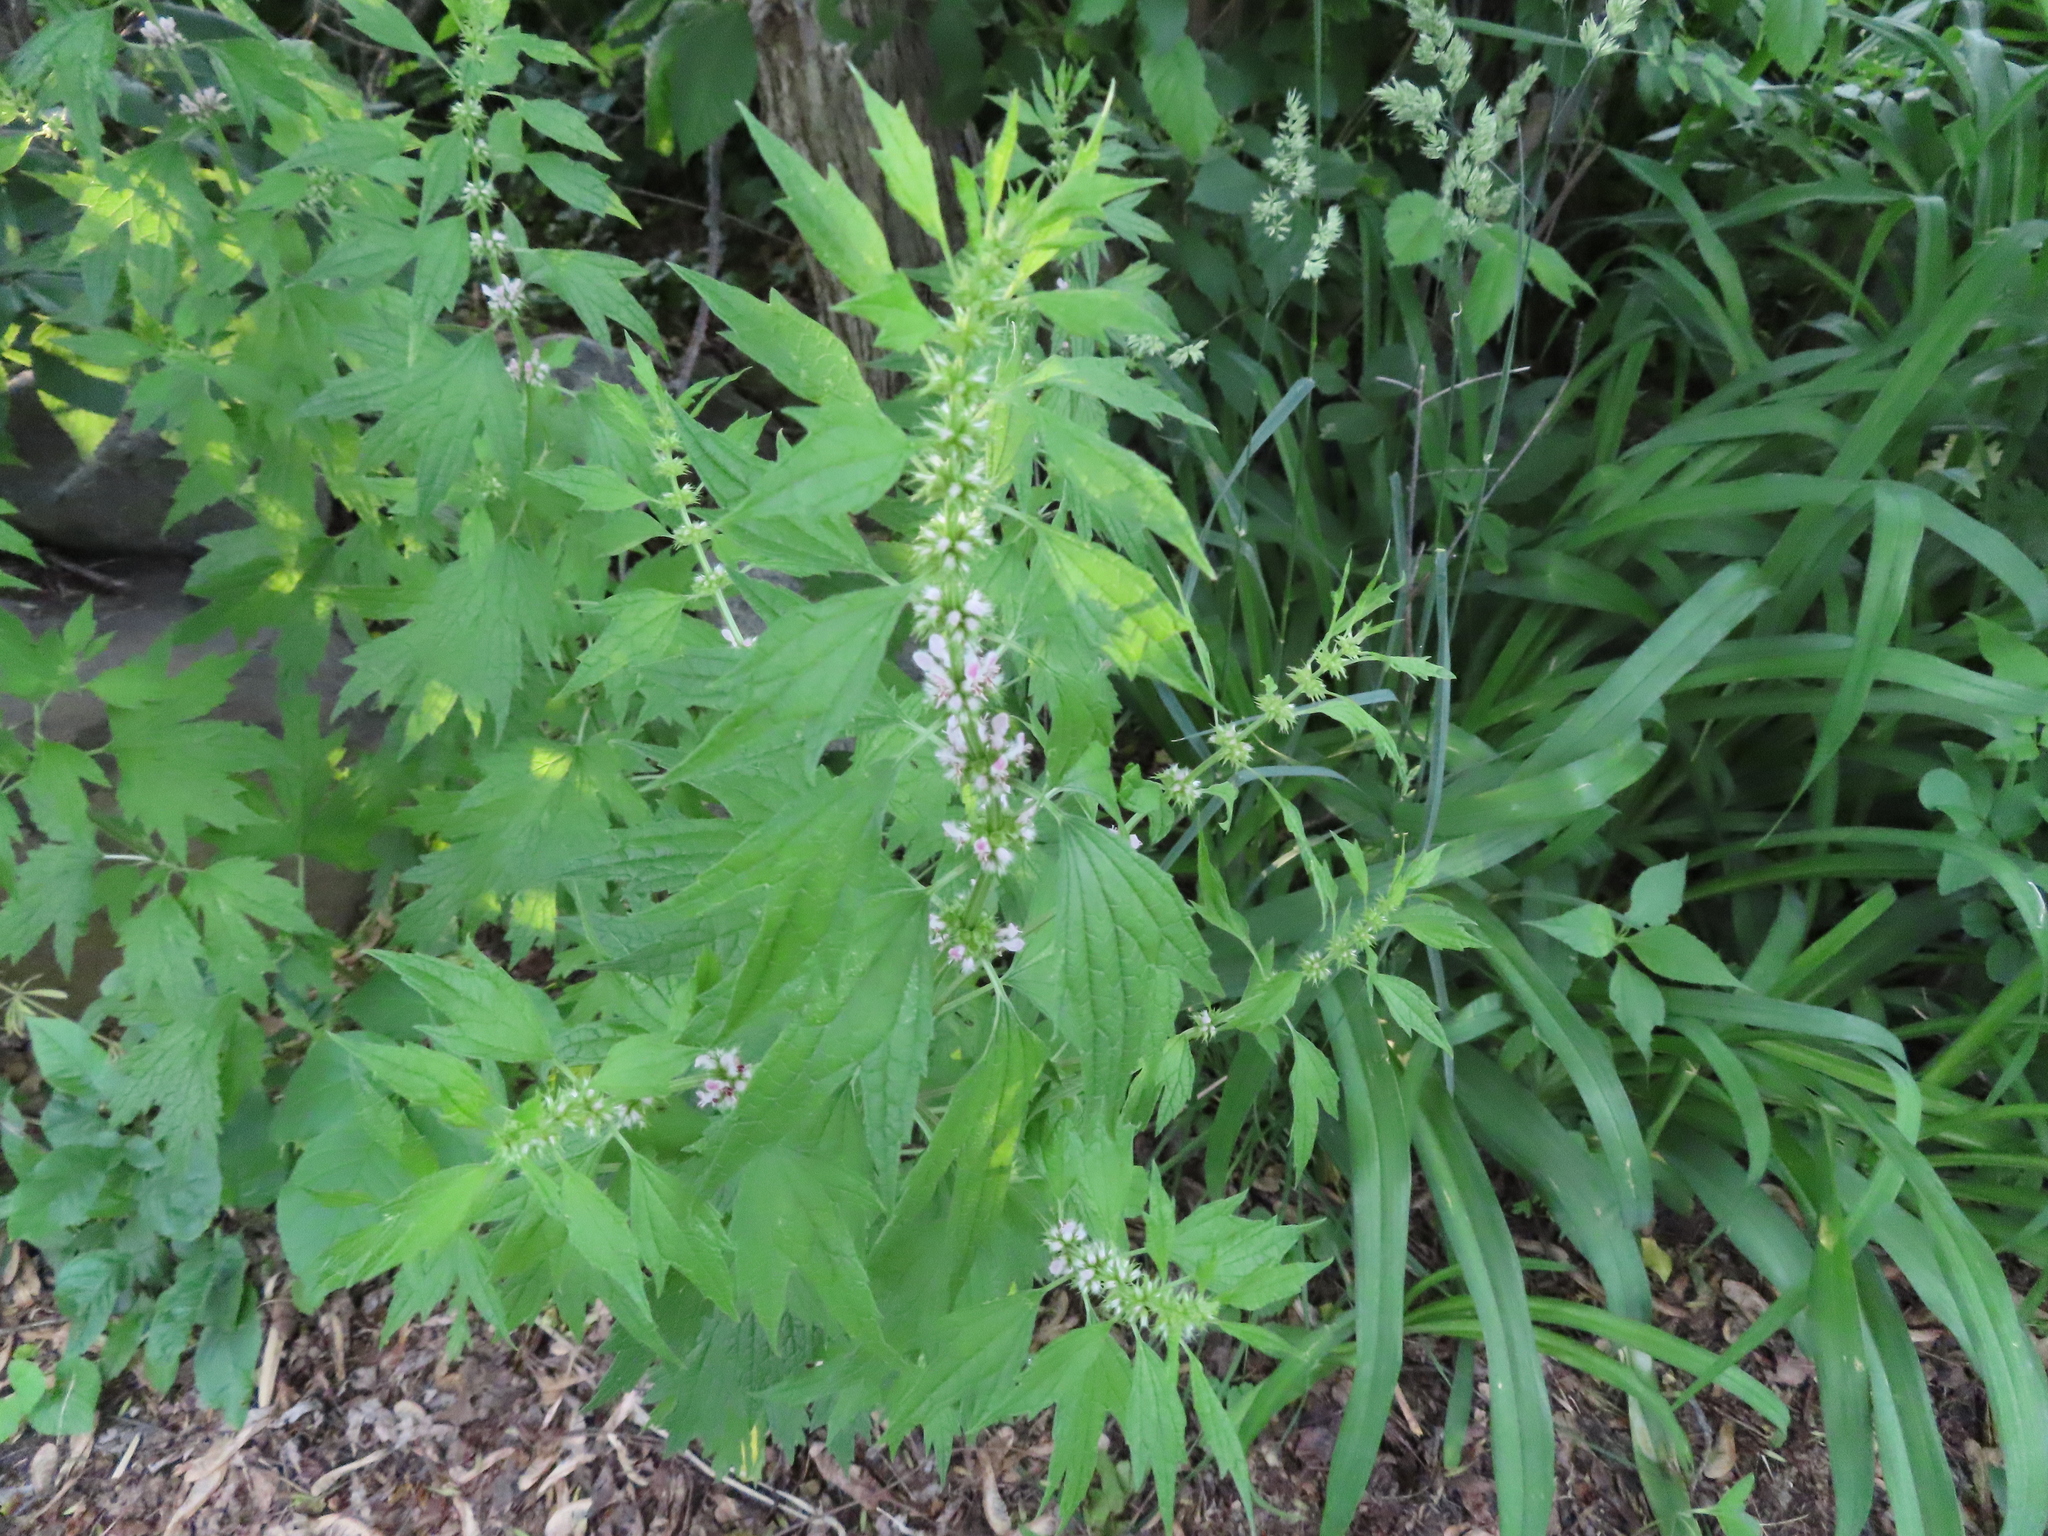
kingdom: Plantae
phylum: Tracheophyta
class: Magnoliopsida
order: Lamiales
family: Lamiaceae
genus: Leonurus
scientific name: Leonurus cardiaca
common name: Motherwort
